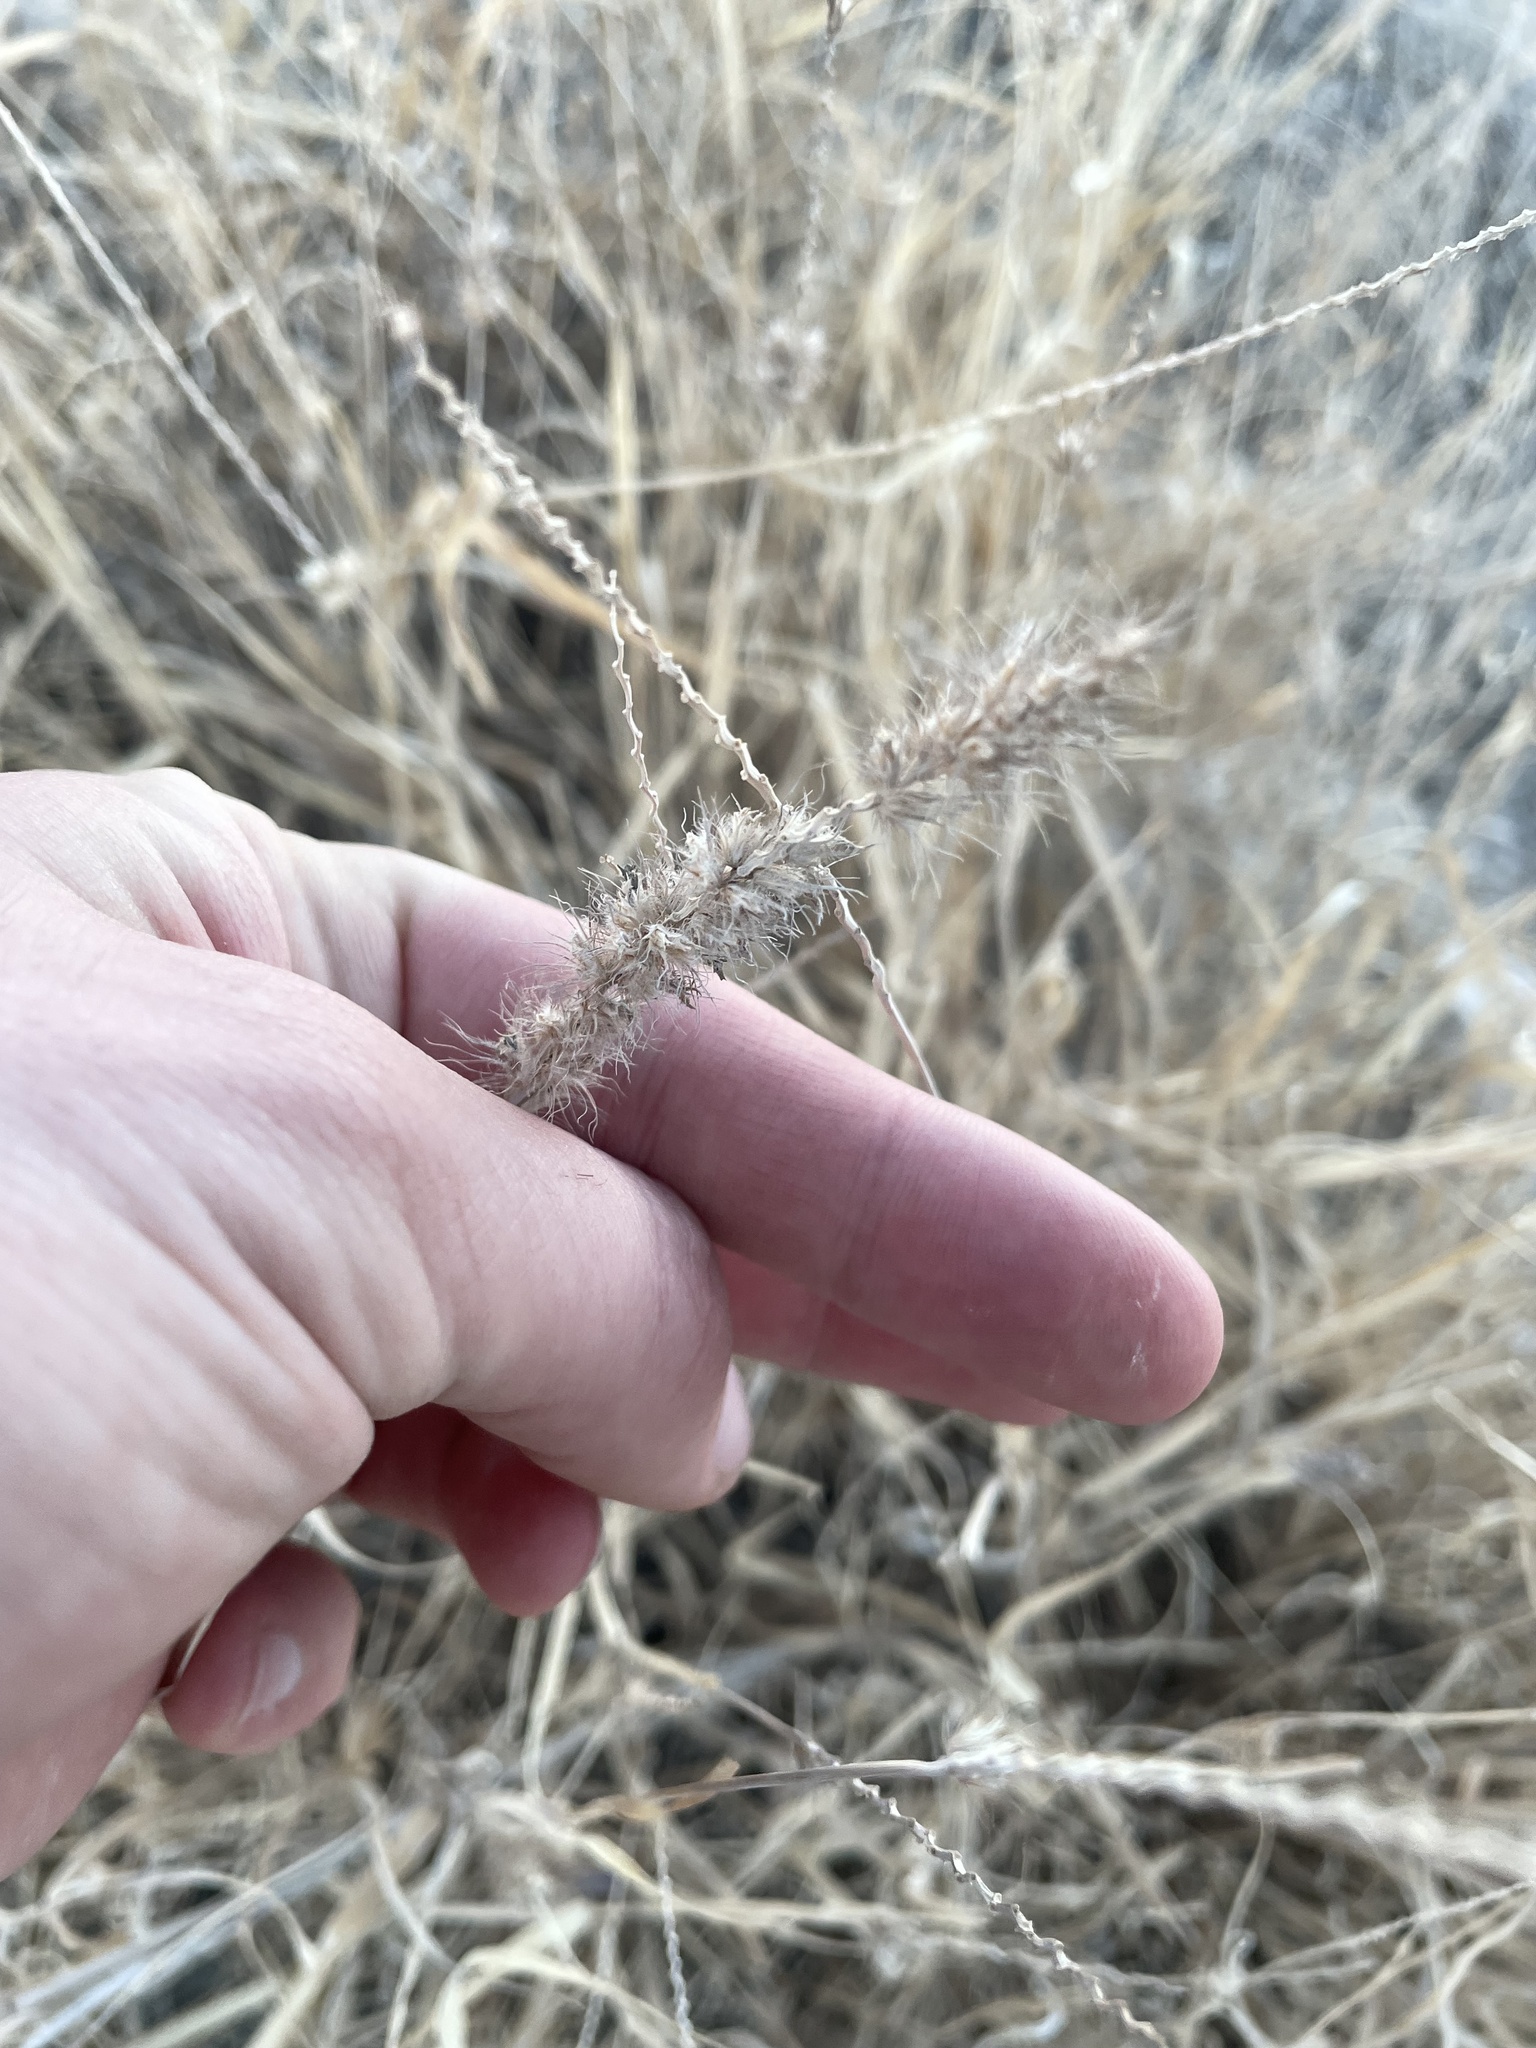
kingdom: Plantae
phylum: Tracheophyta
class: Liliopsida
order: Poales
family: Poaceae
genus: Cenchrus
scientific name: Cenchrus ciliaris
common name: Buffelgrass
